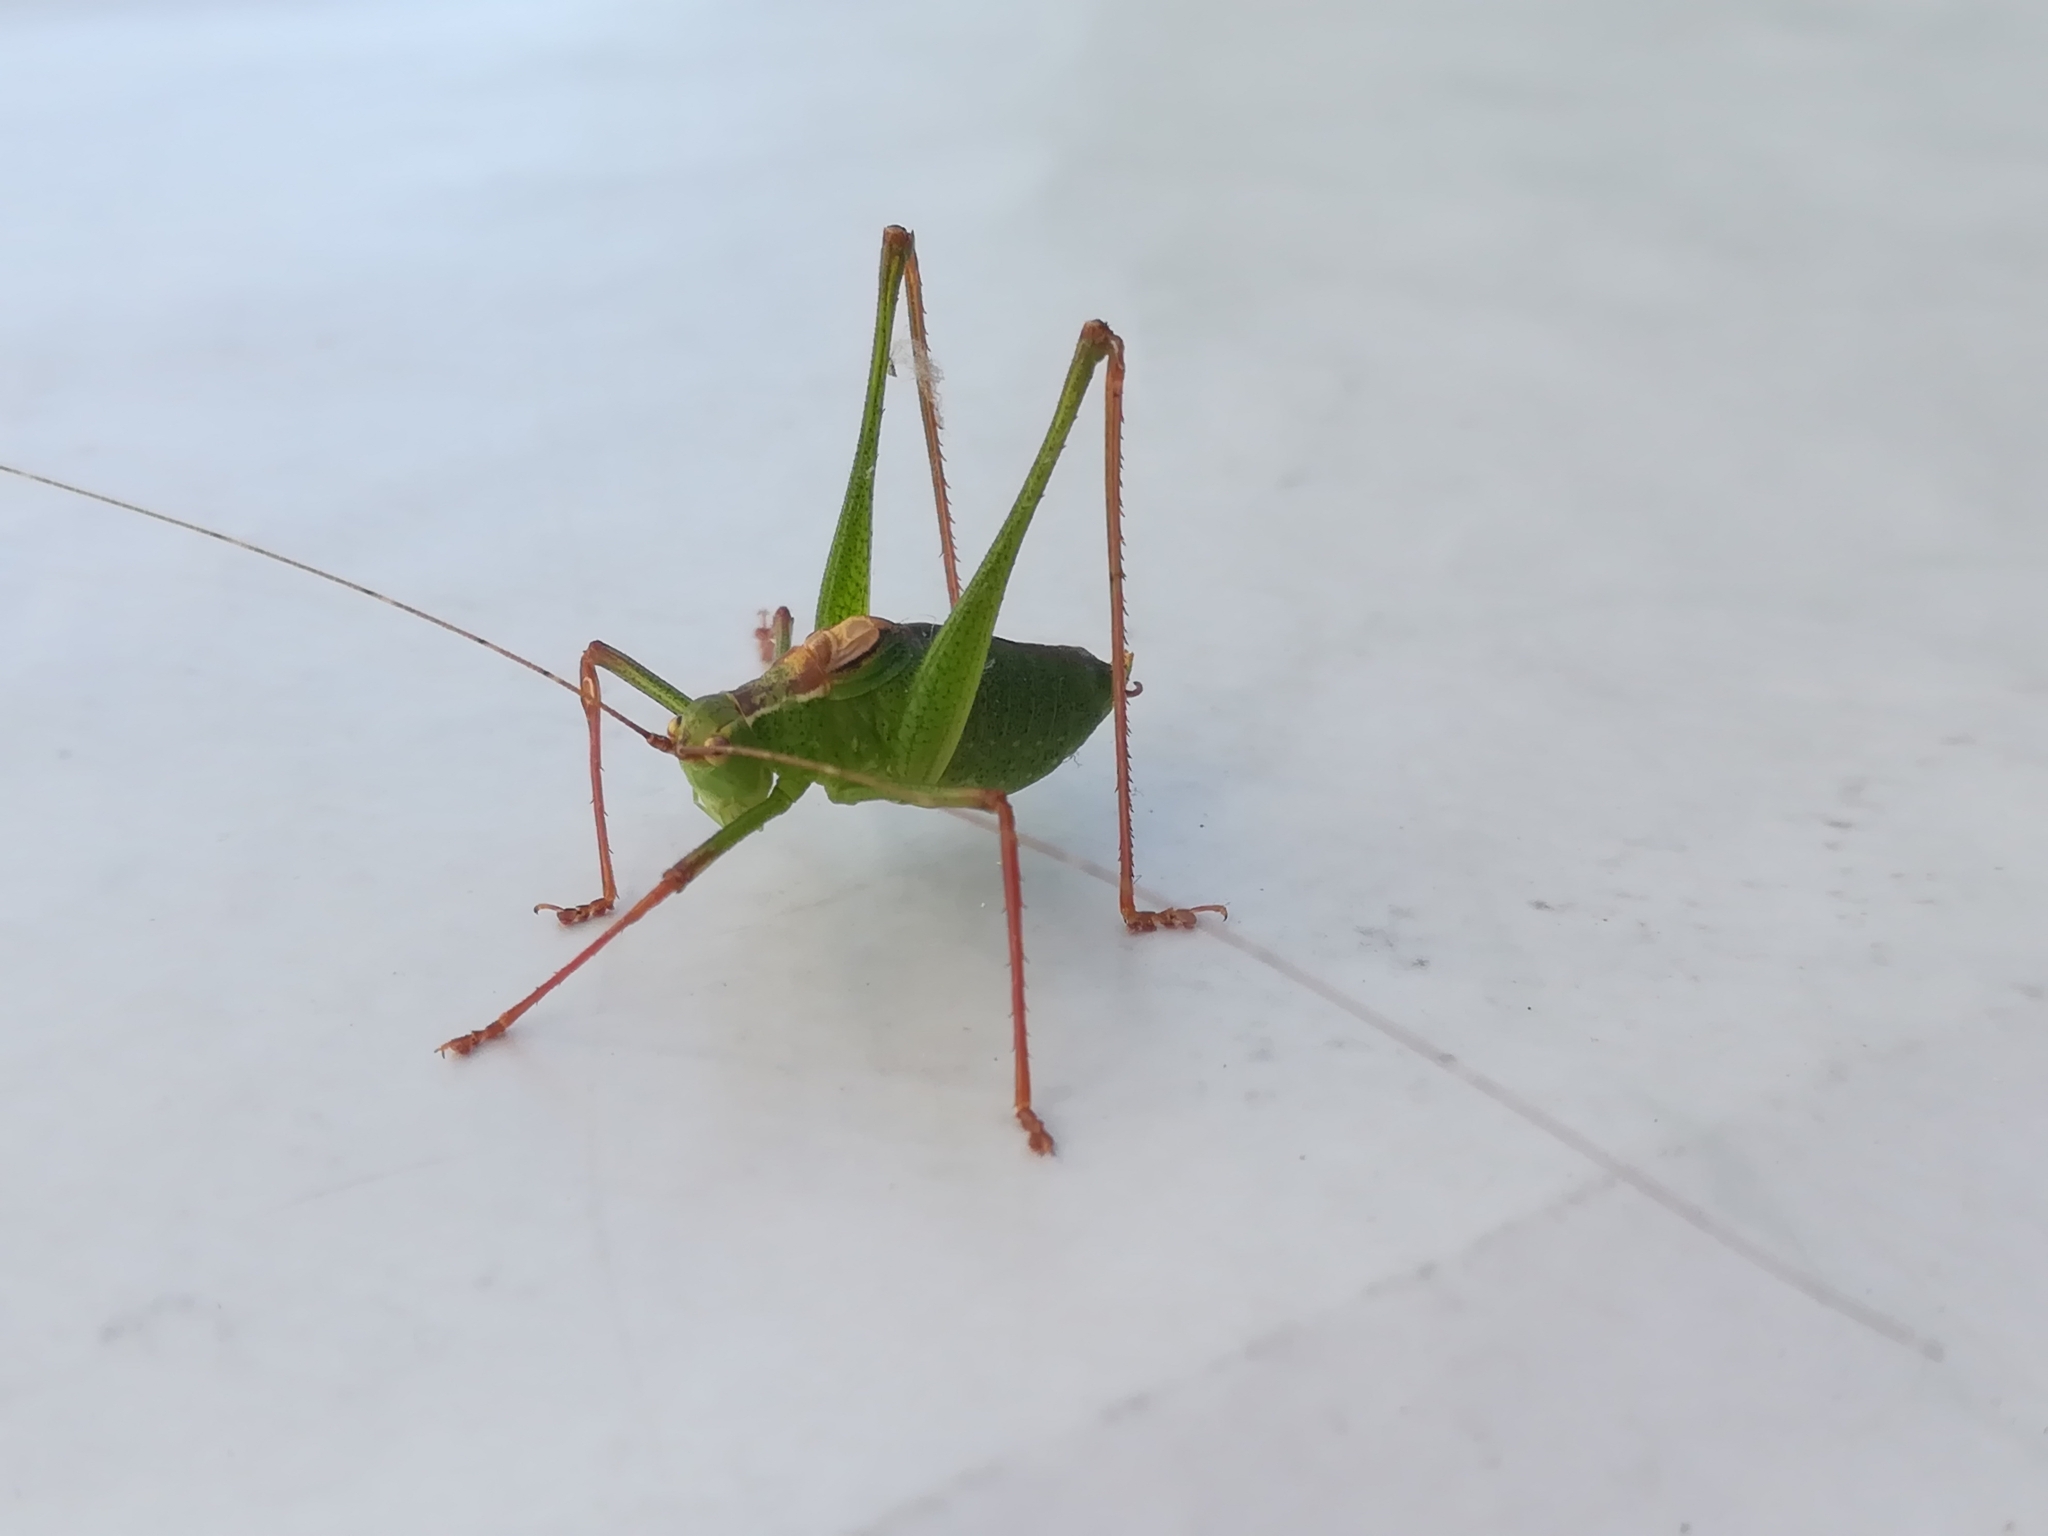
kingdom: Animalia
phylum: Arthropoda
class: Insecta
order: Orthoptera
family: Tettigoniidae
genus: Leptophyes
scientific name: Leptophyes punctatissima
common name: Speckled bush-cricket
